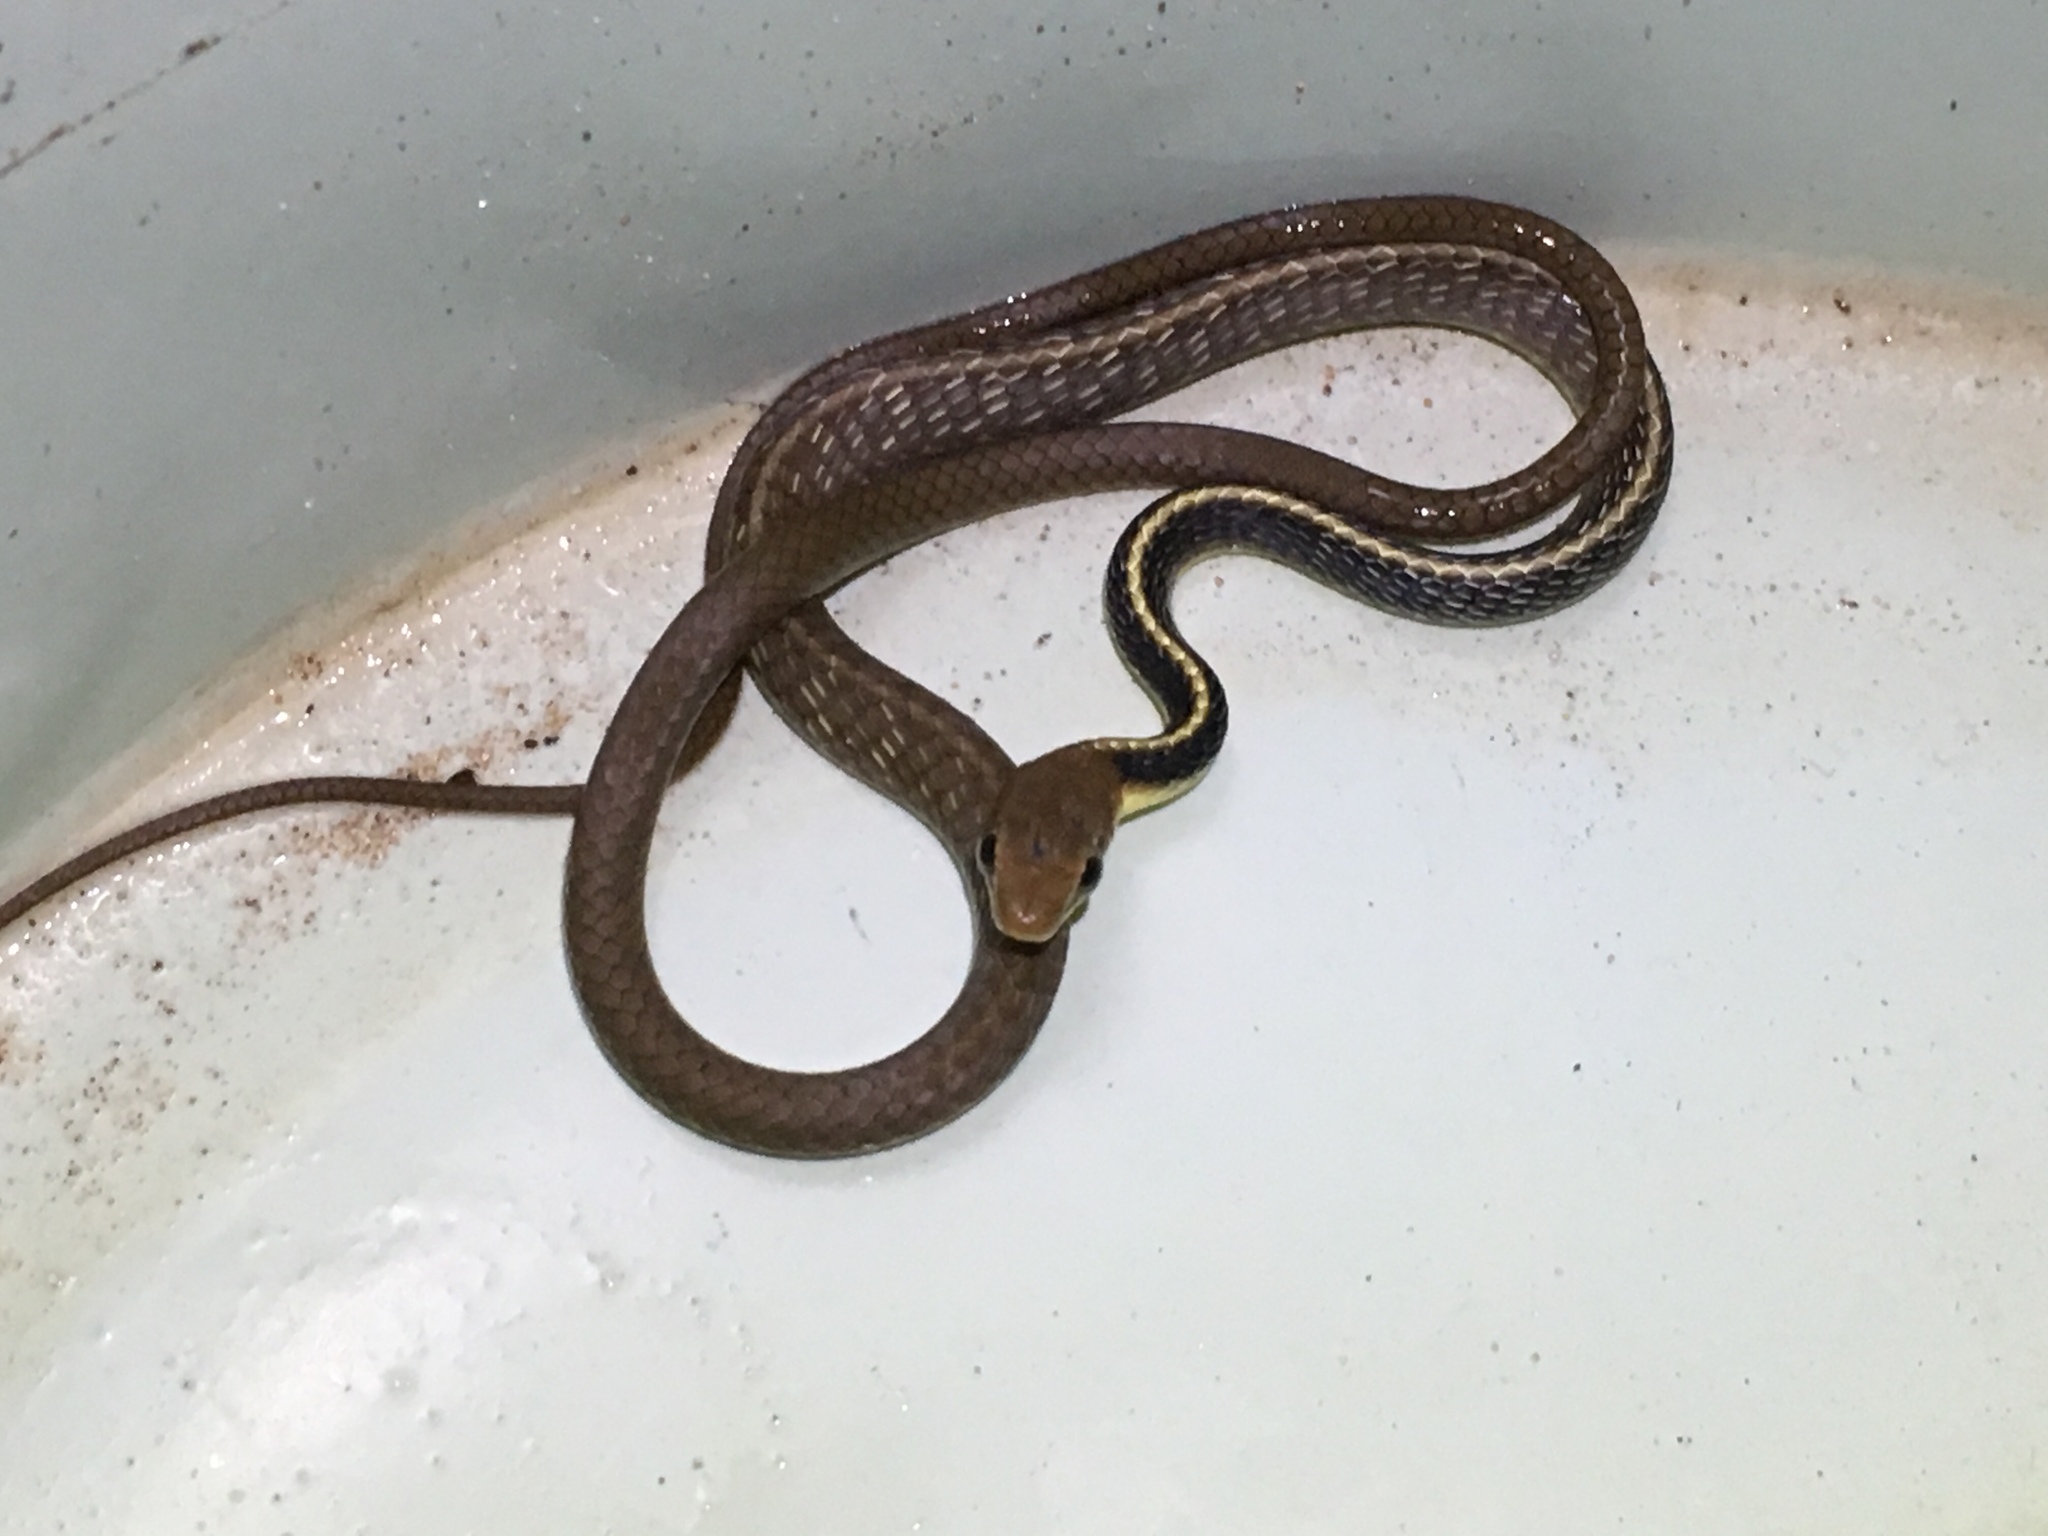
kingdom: Animalia
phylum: Chordata
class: Squamata
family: Colubridae
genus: Chironius
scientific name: Chironius flavolineatus
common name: Boettger's sipo
